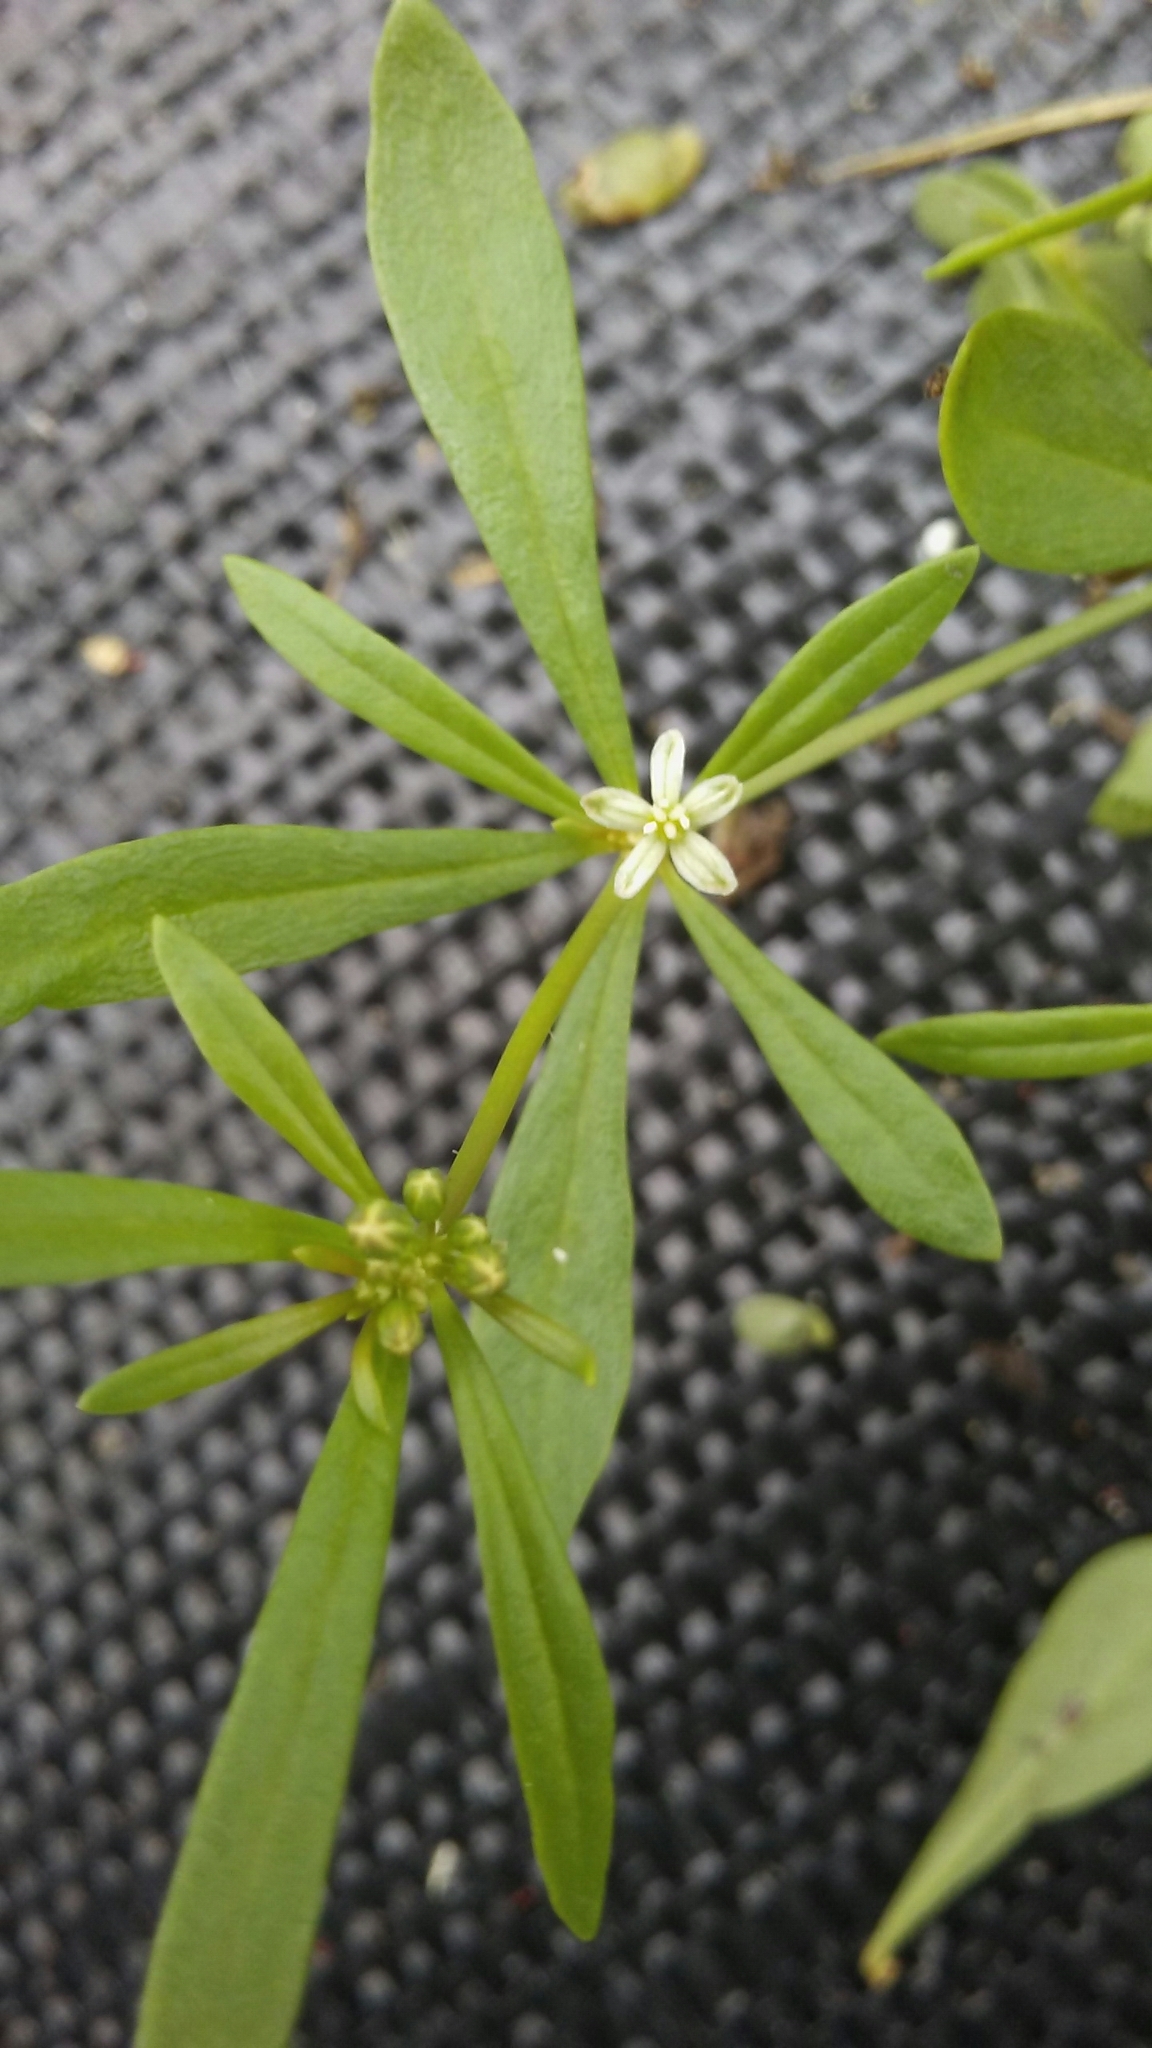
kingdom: Plantae
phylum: Tracheophyta
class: Magnoliopsida
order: Caryophyllales
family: Molluginaceae
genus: Mollugo
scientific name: Mollugo verticillata
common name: Green carpetweed
